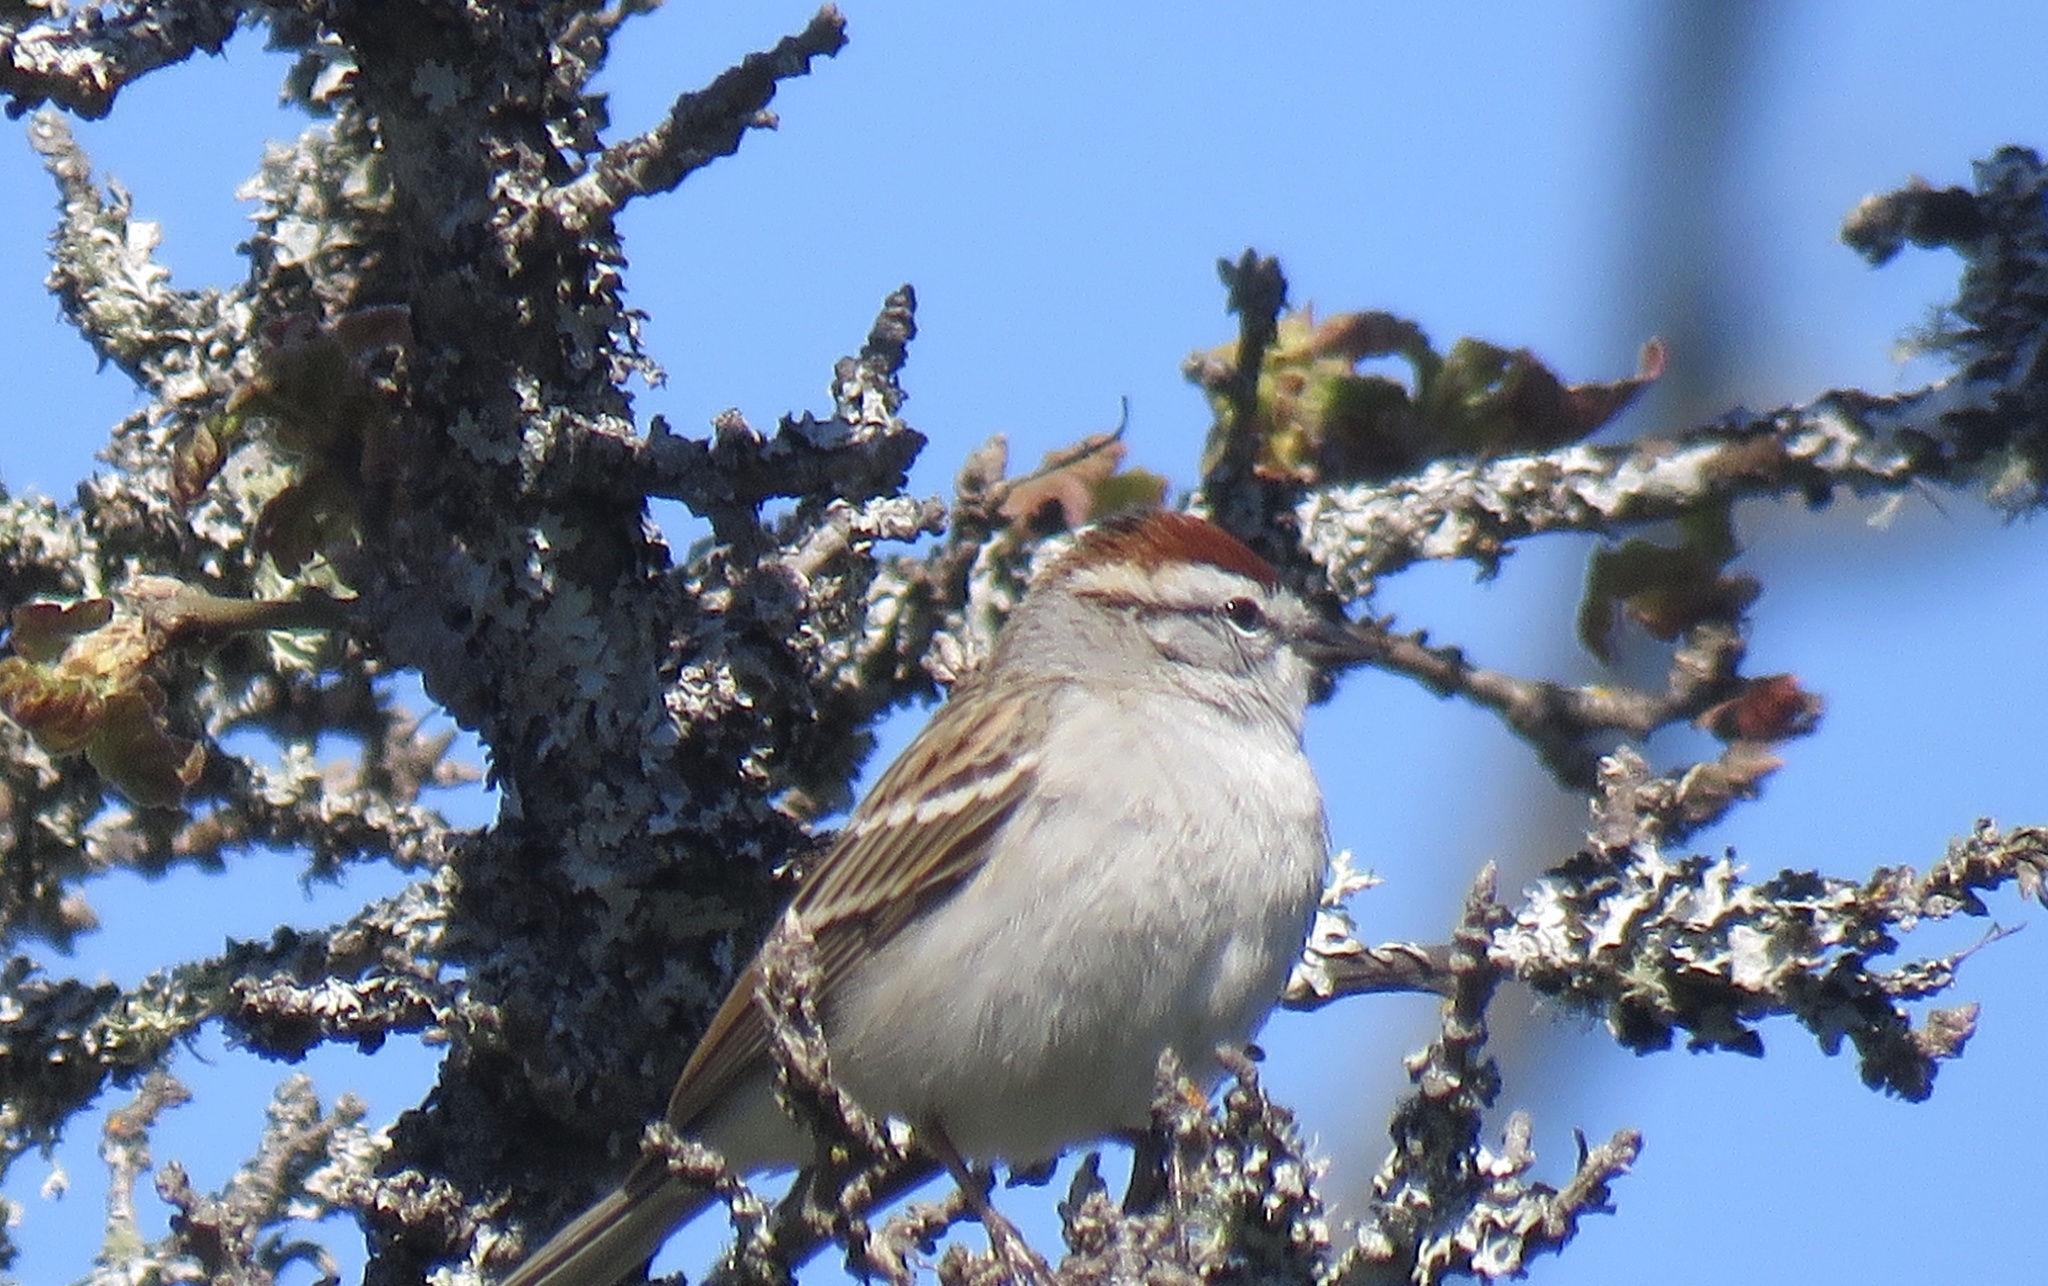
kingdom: Animalia
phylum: Chordata
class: Aves
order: Passeriformes
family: Passerellidae
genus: Spizella
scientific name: Spizella passerina
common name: Chipping sparrow
